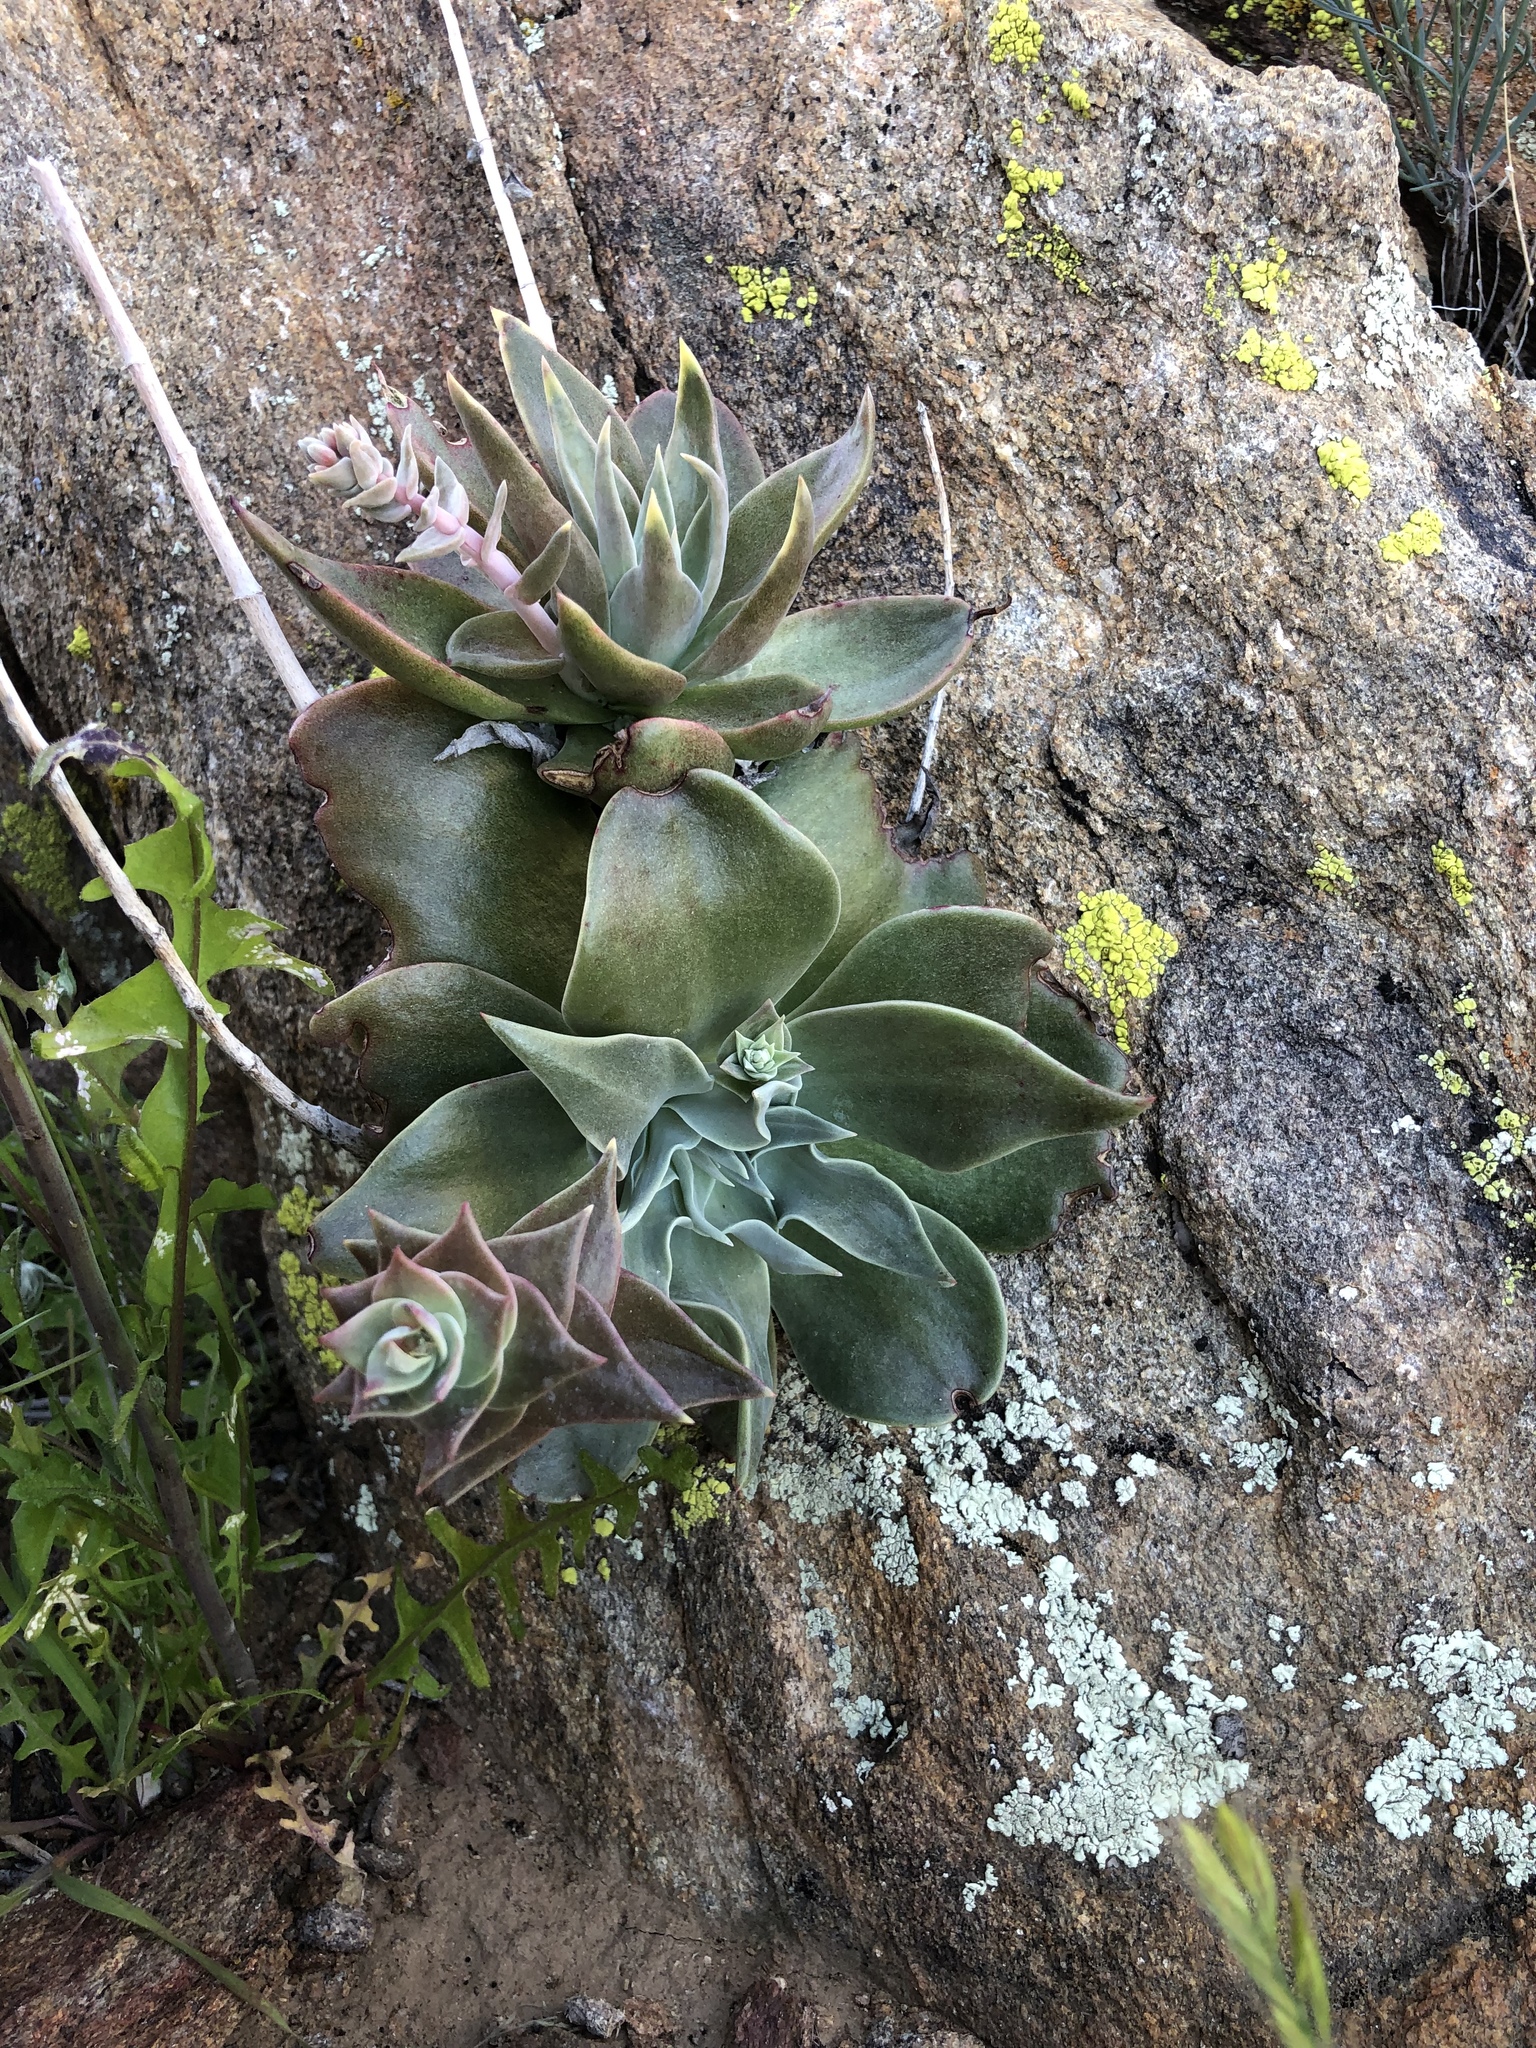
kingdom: Plantae
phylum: Tracheophyta
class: Magnoliopsida
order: Saxifragales
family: Crassulaceae
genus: Dudleya
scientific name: Dudleya arizonica
